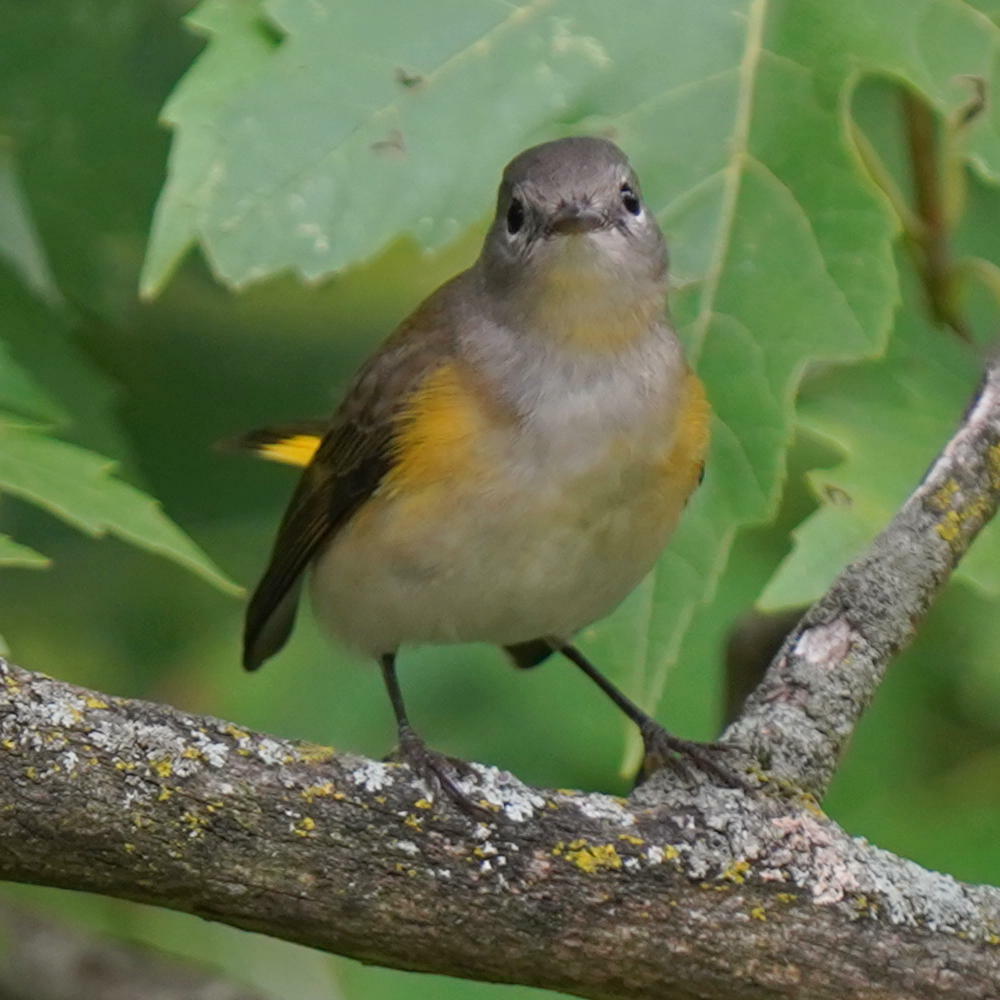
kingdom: Animalia
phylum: Chordata
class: Aves
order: Passeriformes
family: Parulidae
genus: Setophaga
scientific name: Setophaga ruticilla
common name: American redstart
